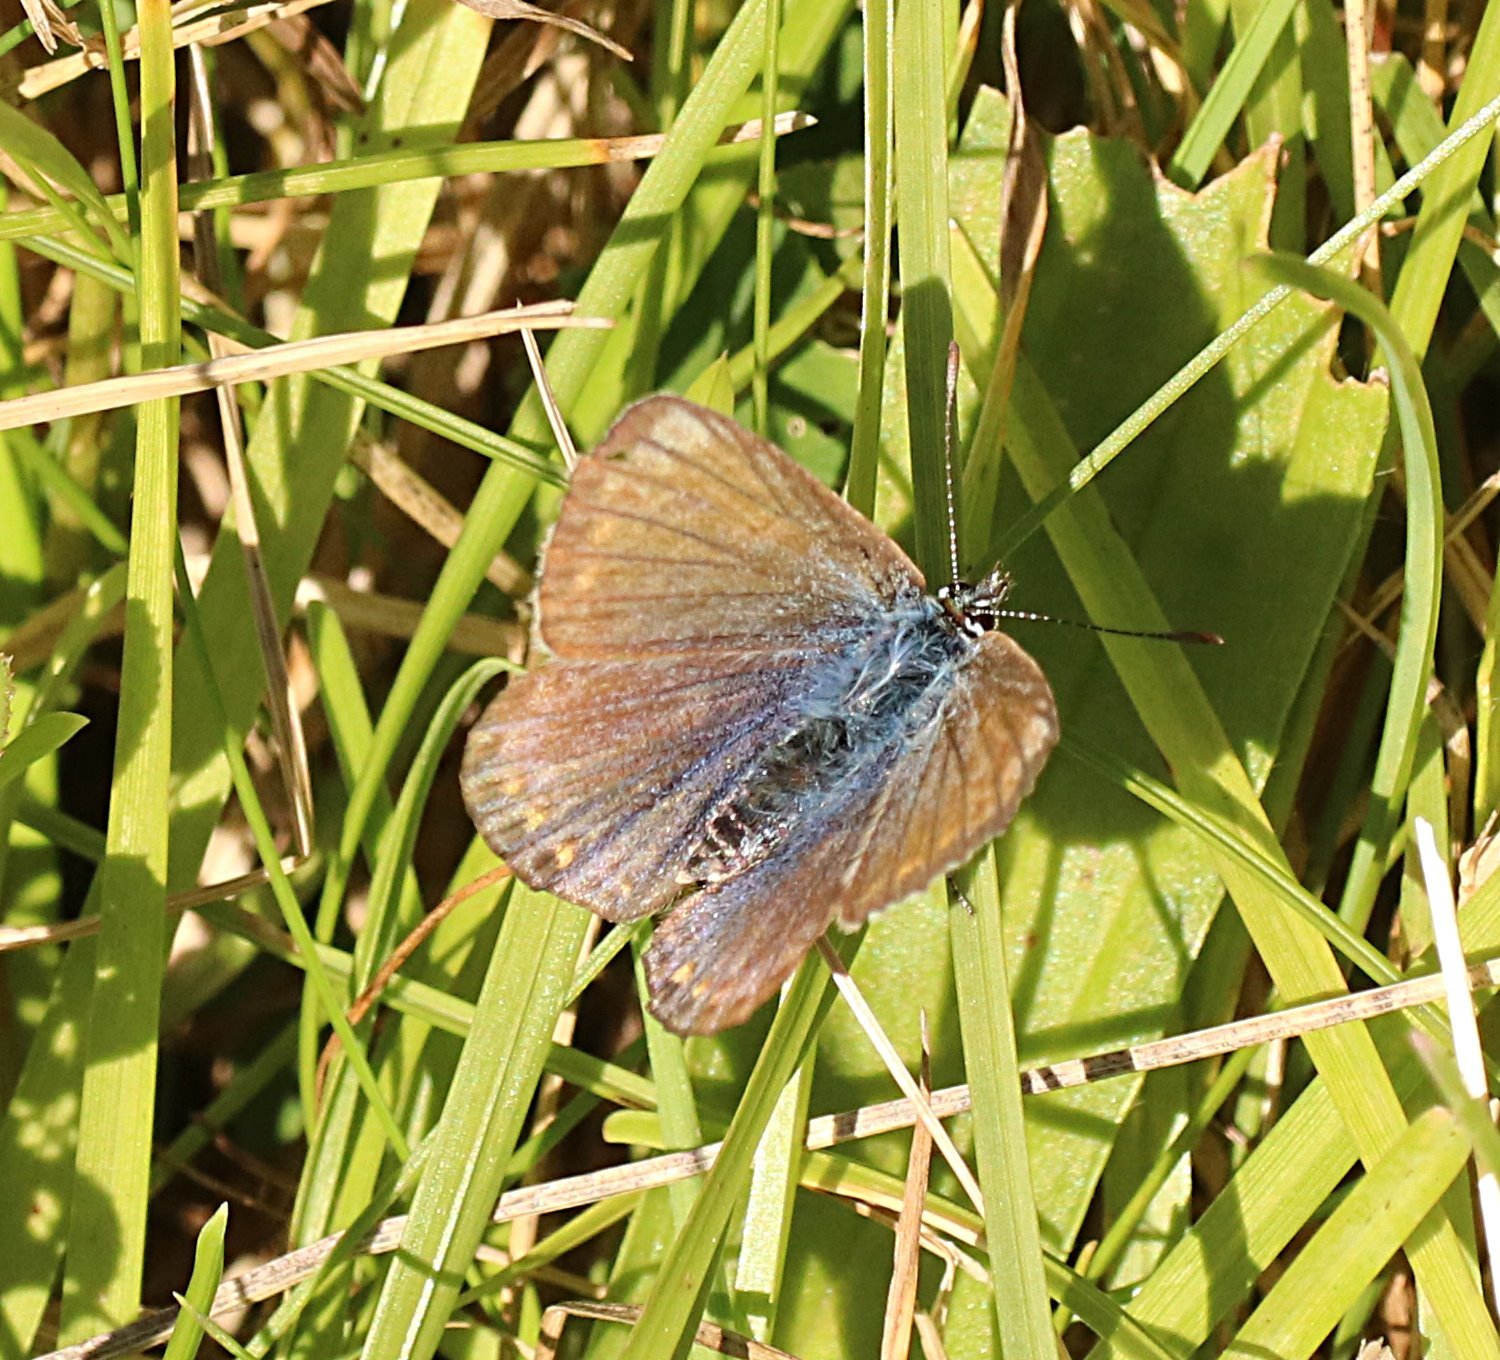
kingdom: Animalia
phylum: Arthropoda
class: Insecta
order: Lepidoptera
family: Lycaenidae
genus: Polyommatus
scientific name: Polyommatus icarus
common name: Common blue
